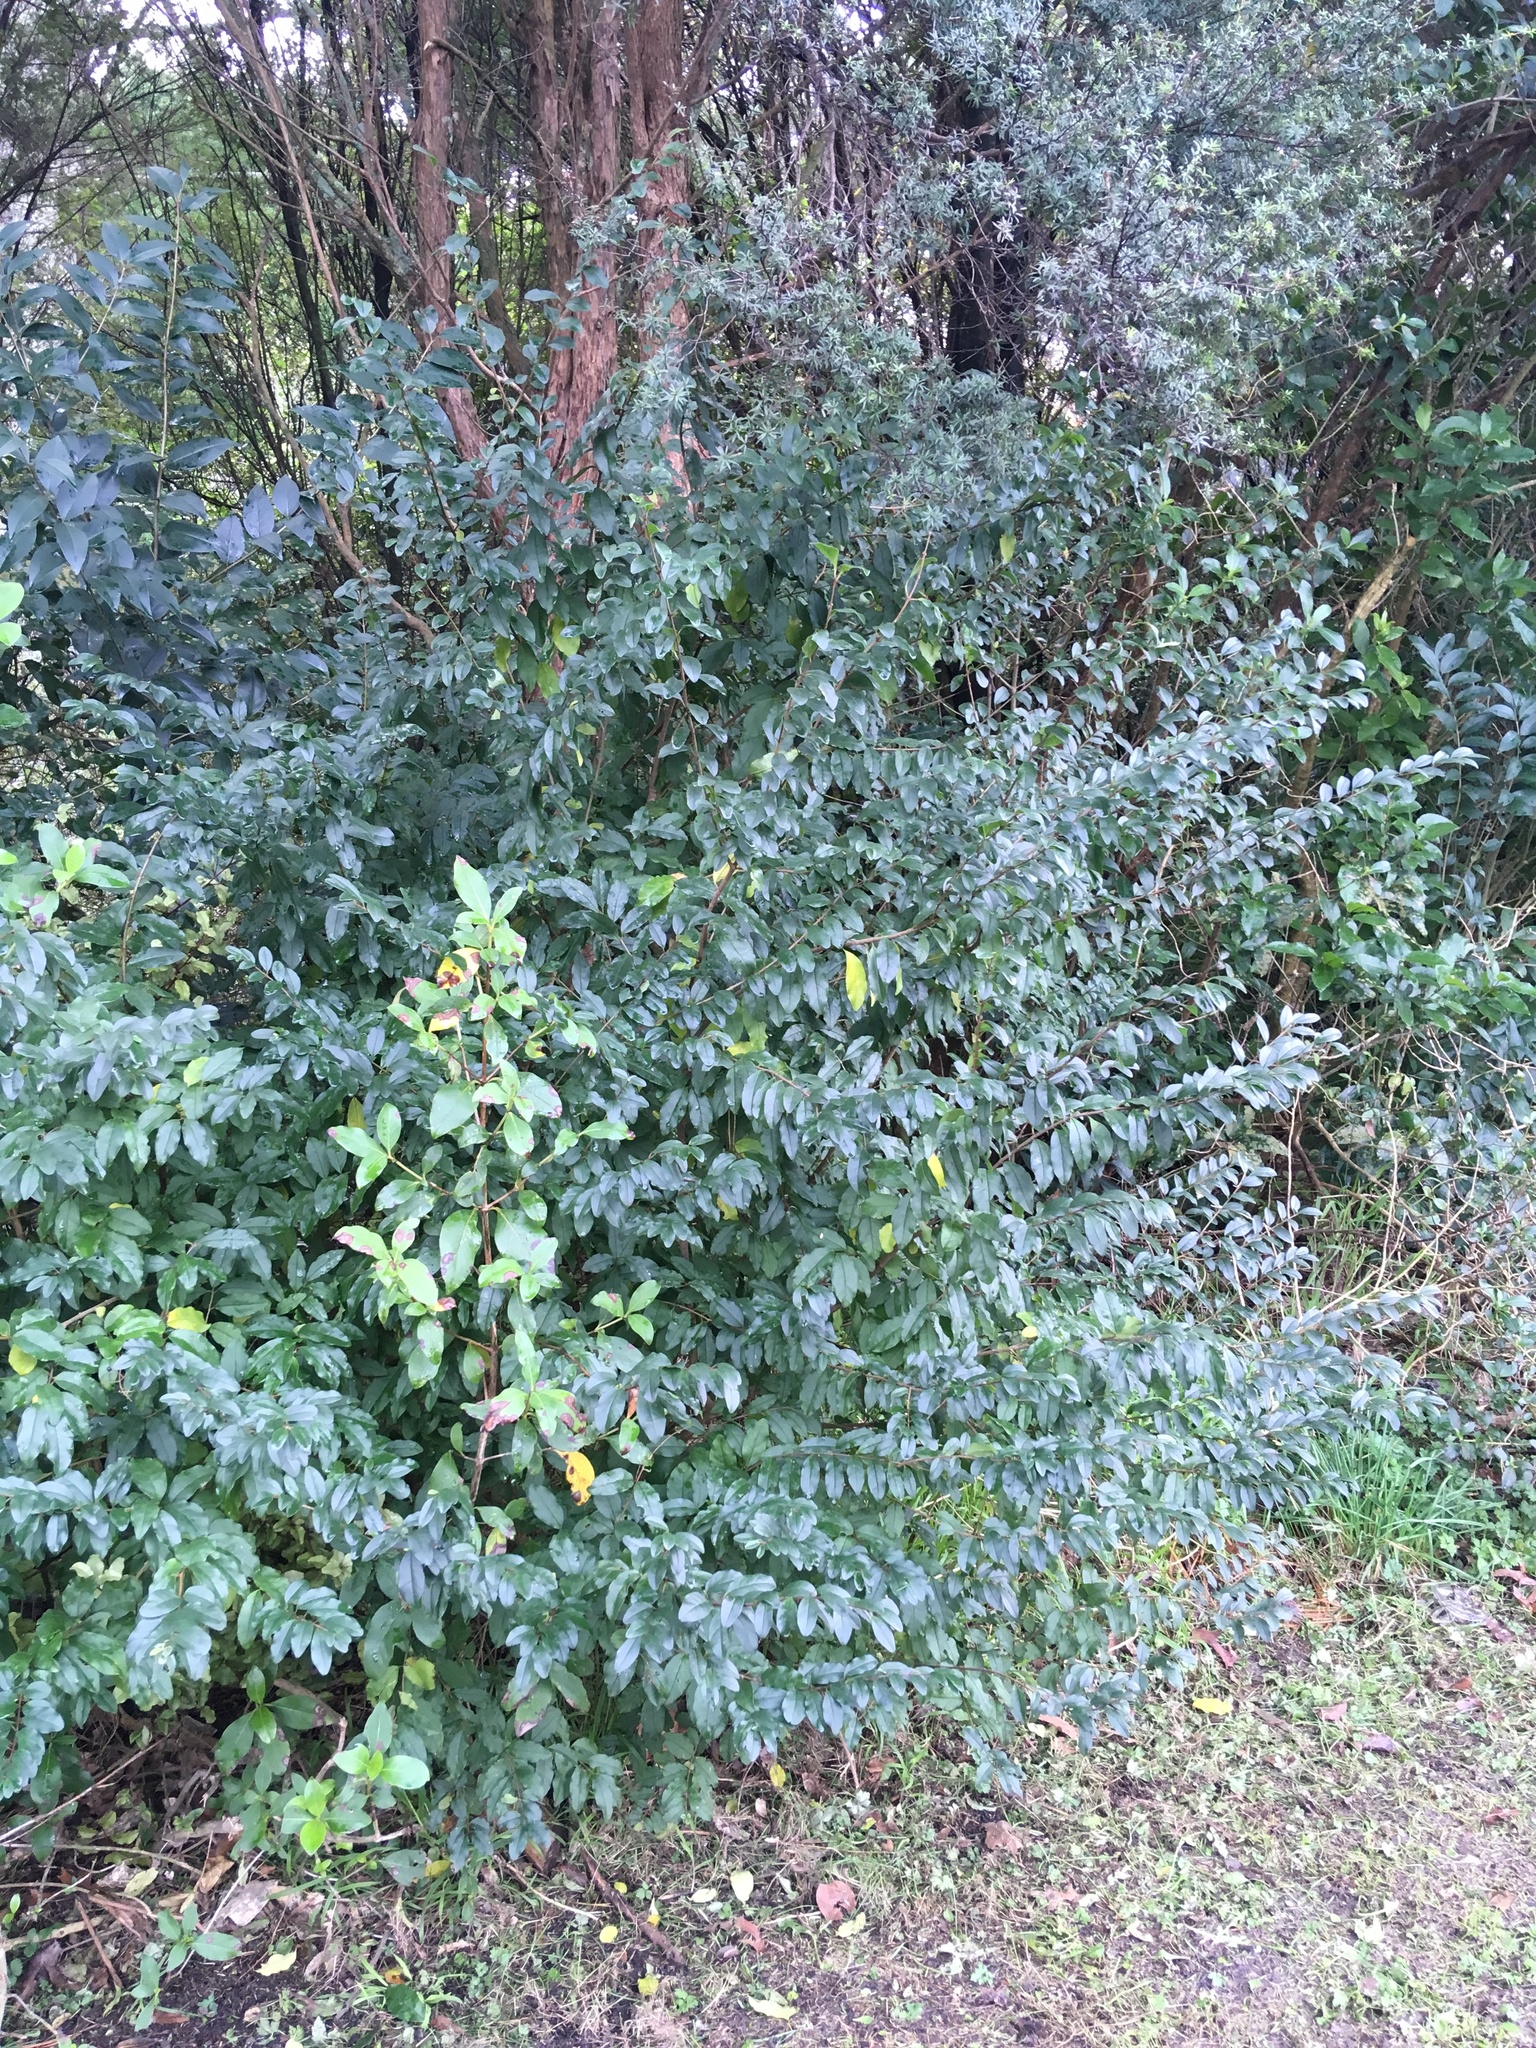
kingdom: Plantae
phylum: Tracheophyta
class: Magnoliopsida
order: Lamiales
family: Oleaceae
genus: Ligustrum
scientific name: Ligustrum sinense
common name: Chinese privet
